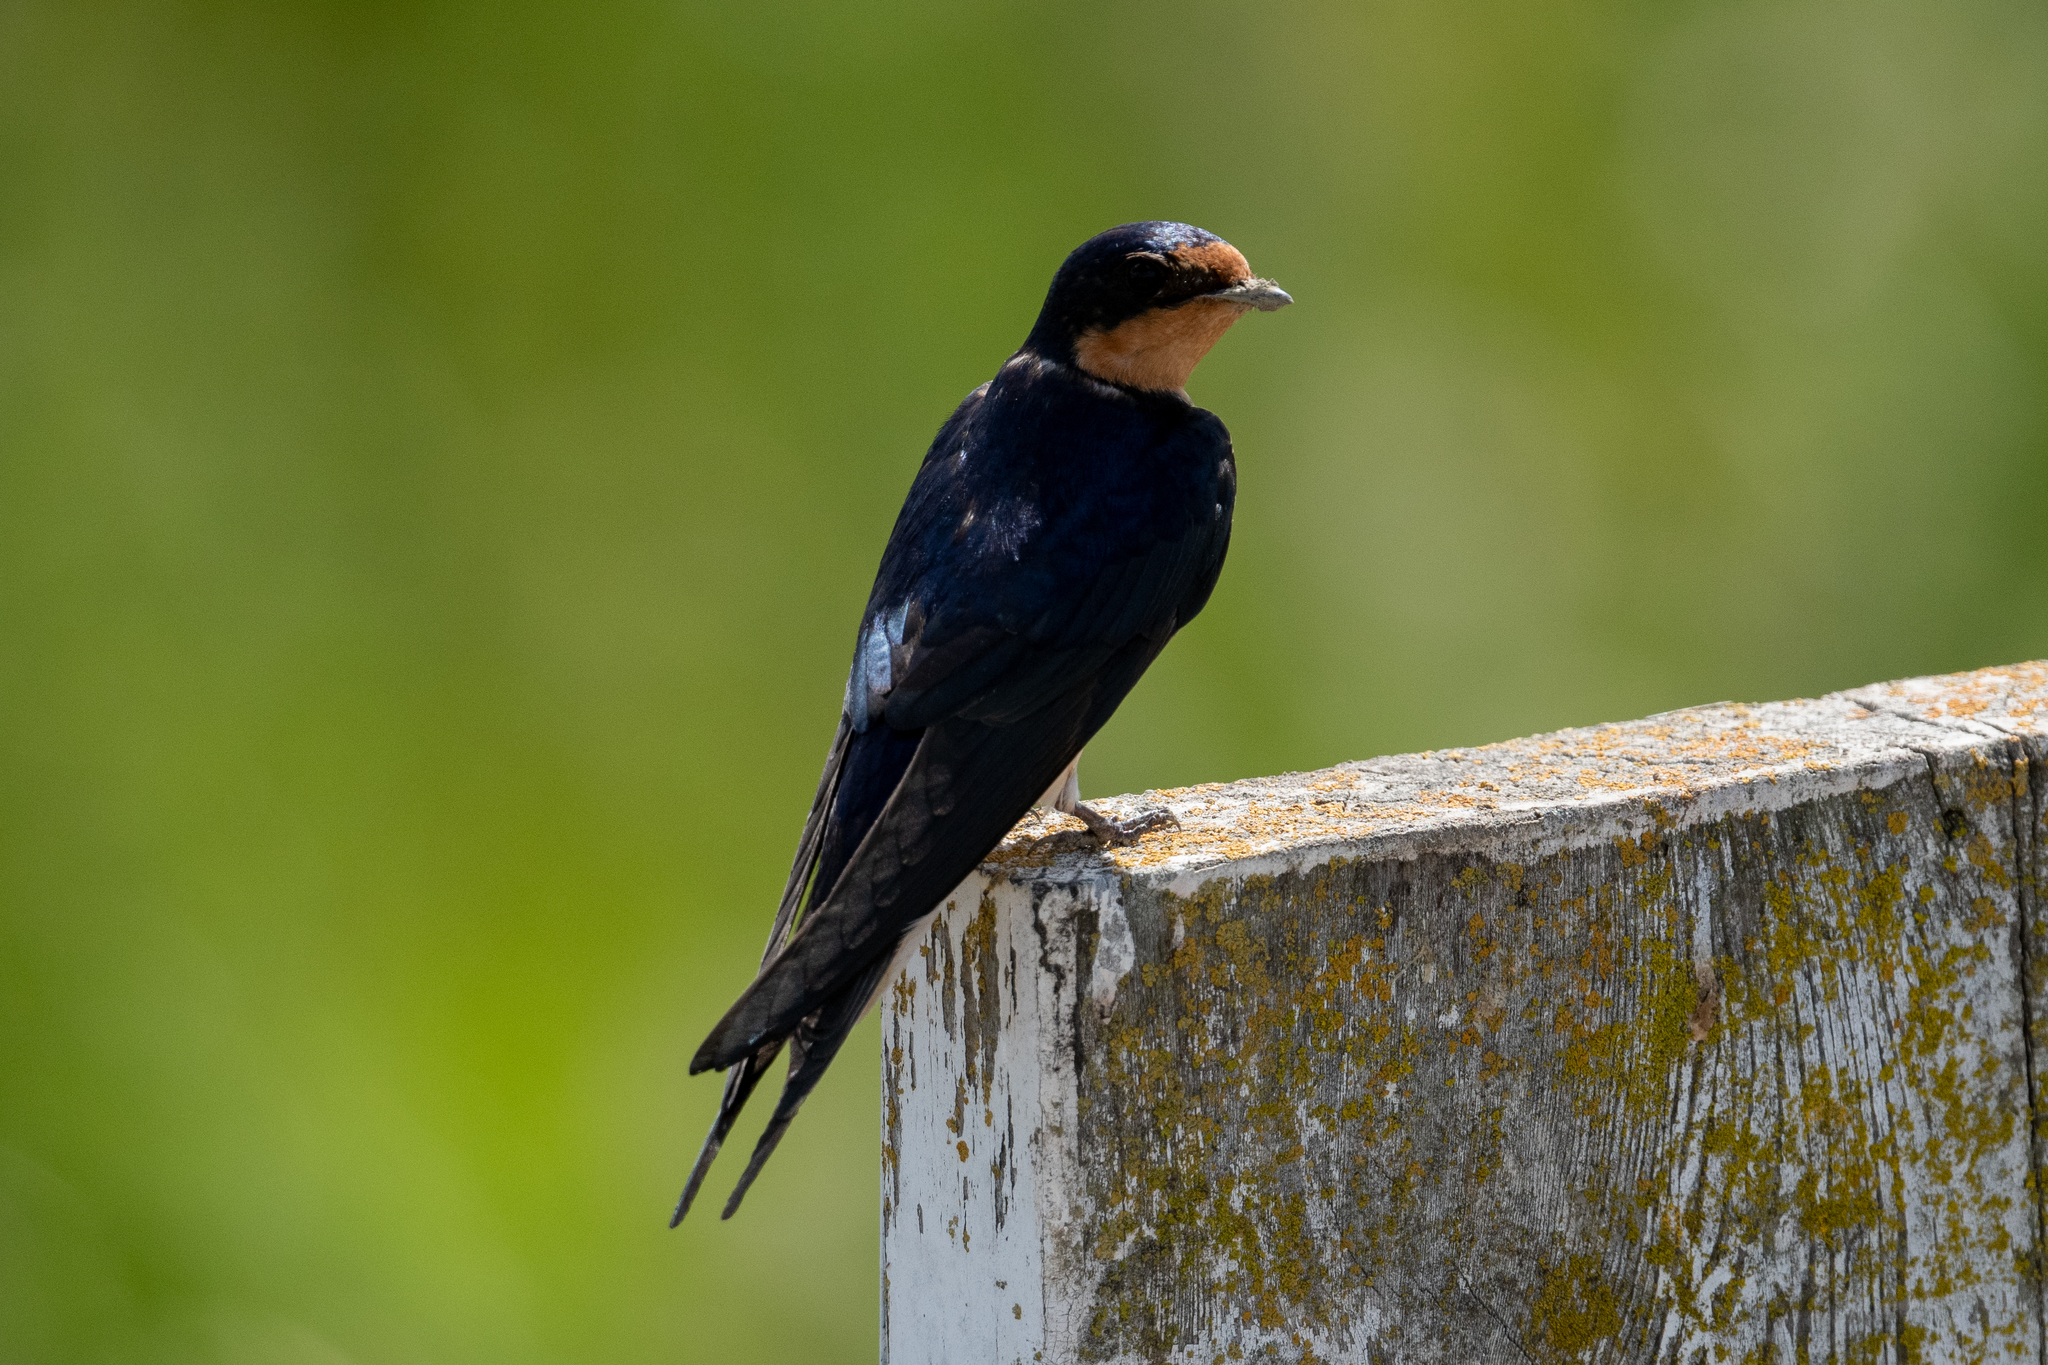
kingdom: Animalia
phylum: Chordata
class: Aves
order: Passeriformes
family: Hirundinidae
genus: Hirundo
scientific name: Hirundo rustica
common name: Barn swallow
